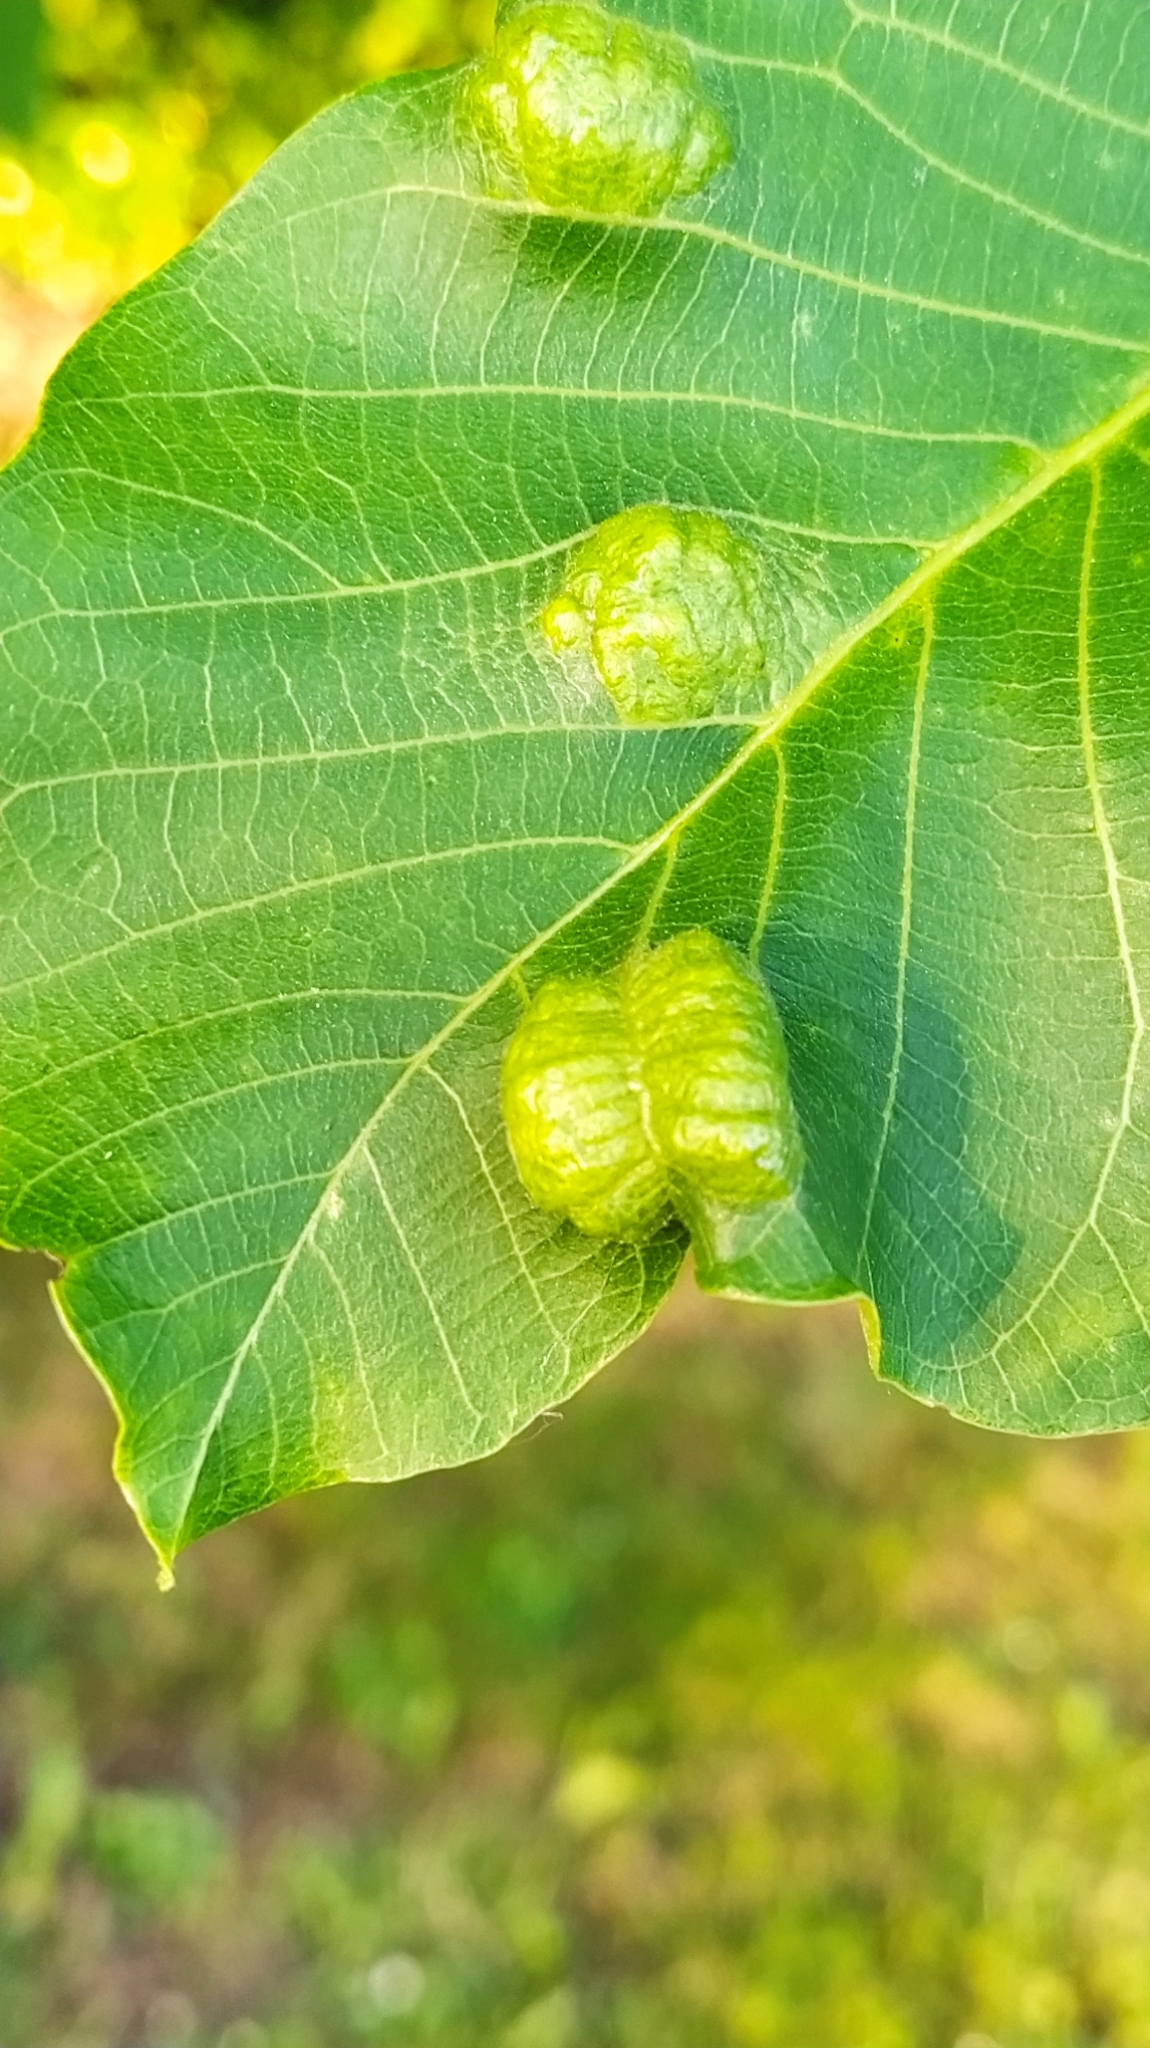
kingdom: Animalia
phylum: Arthropoda
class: Arachnida
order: Trombidiformes
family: Eriophyidae
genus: Aceria
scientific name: Aceria erinea
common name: Persian walnut erineum mite
